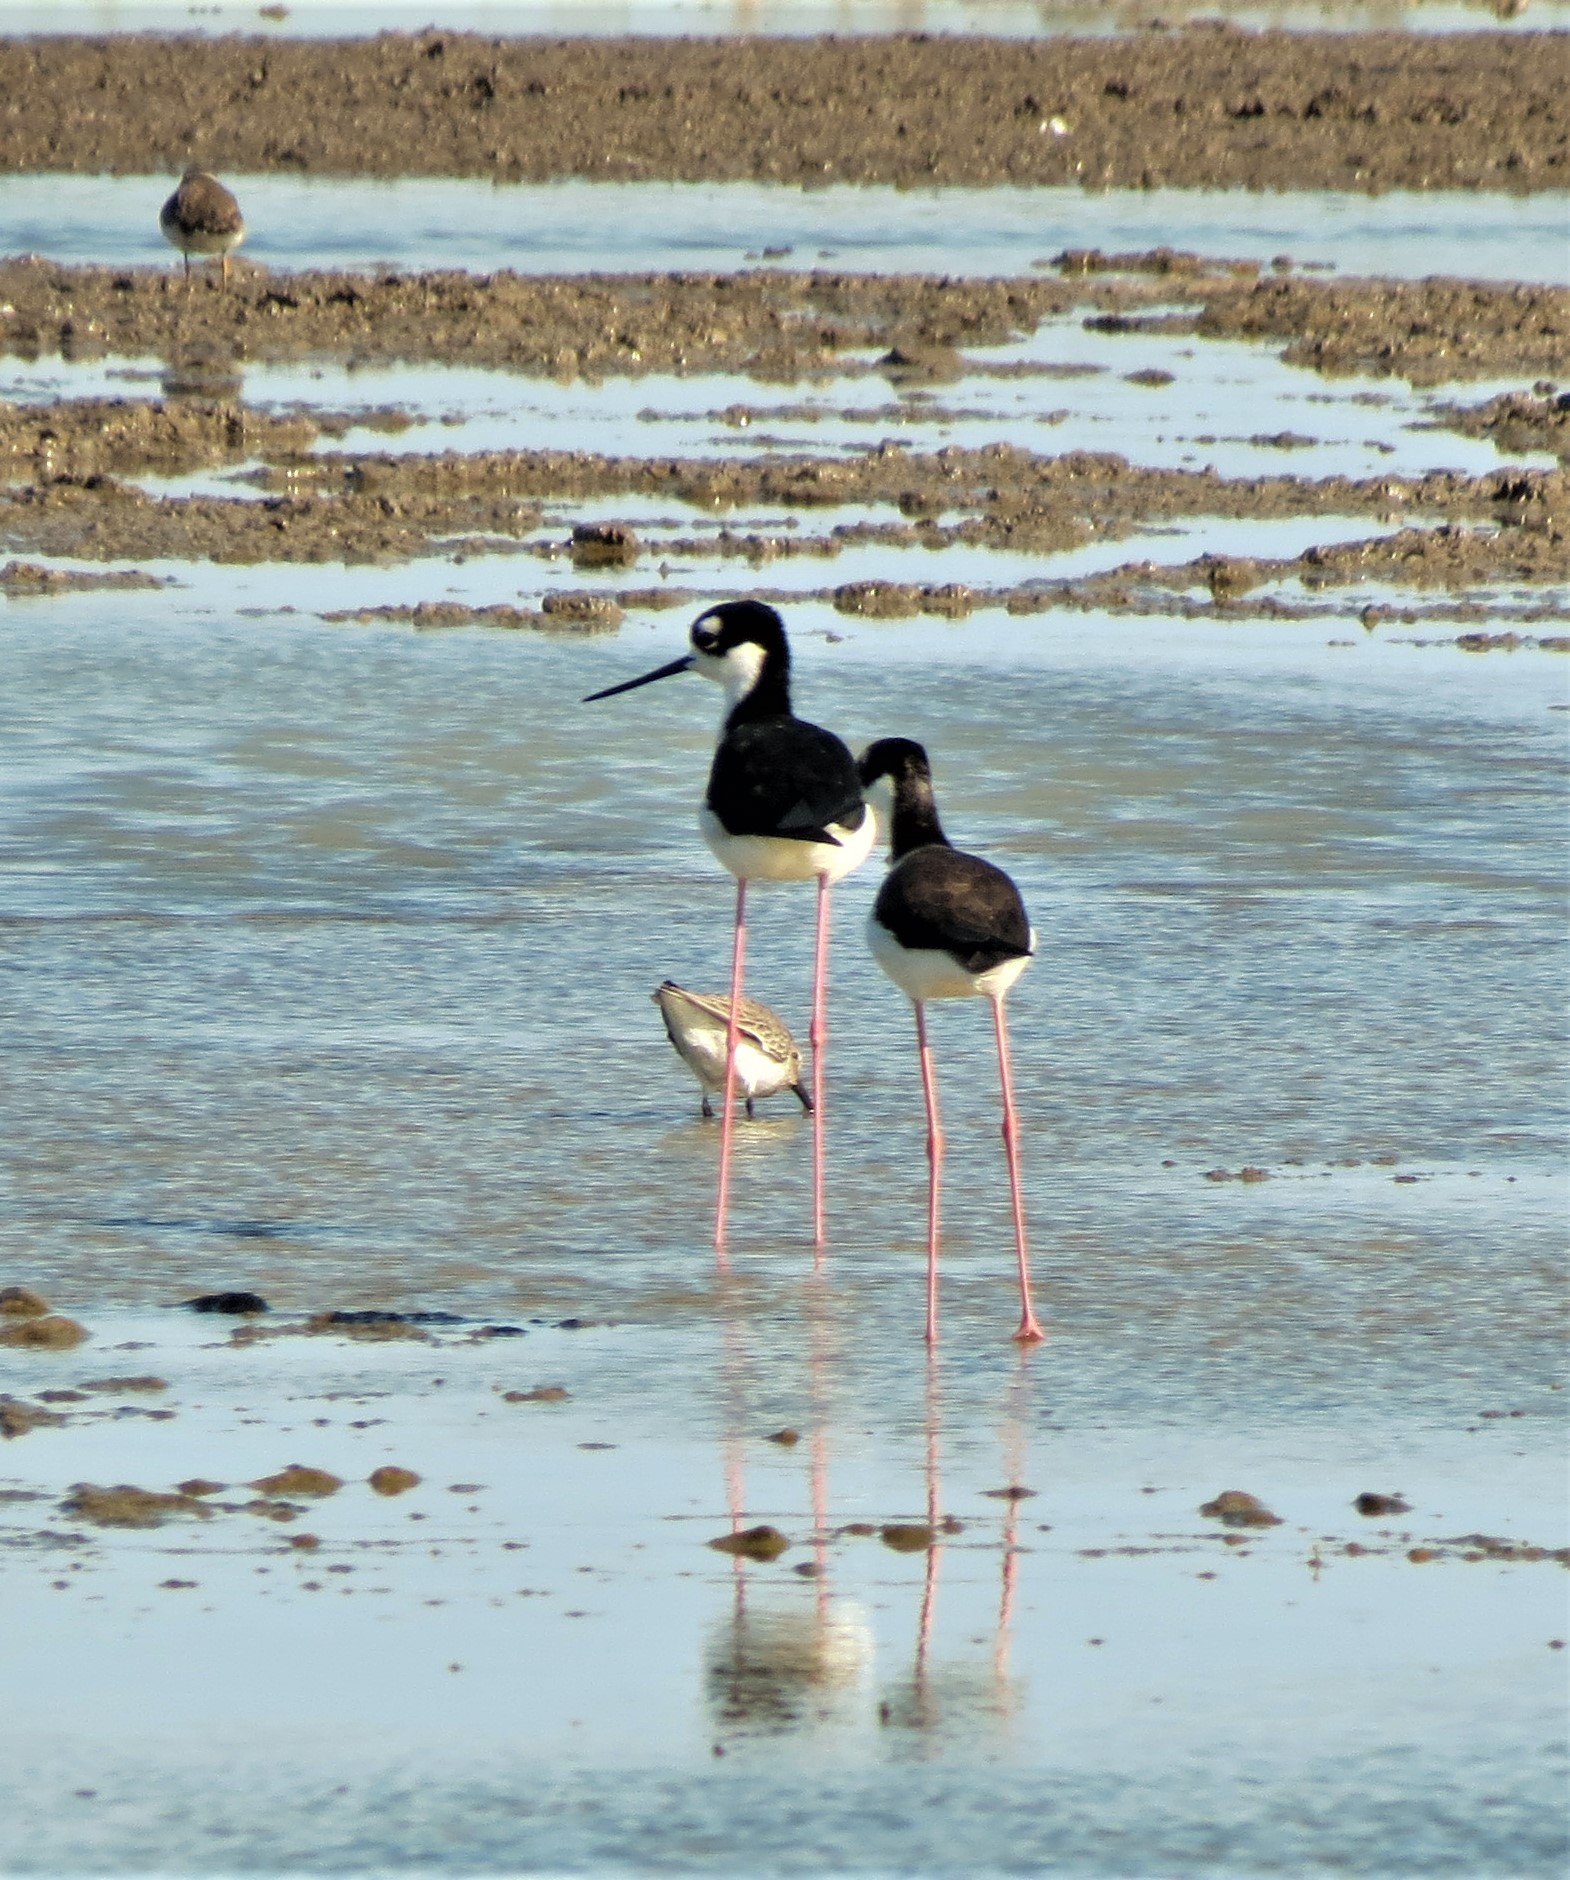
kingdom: Animalia
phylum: Chordata
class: Aves
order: Charadriiformes
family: Recurvirostridae
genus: Himantopus
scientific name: Himantopus mexicanus
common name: Black-necked stilt
